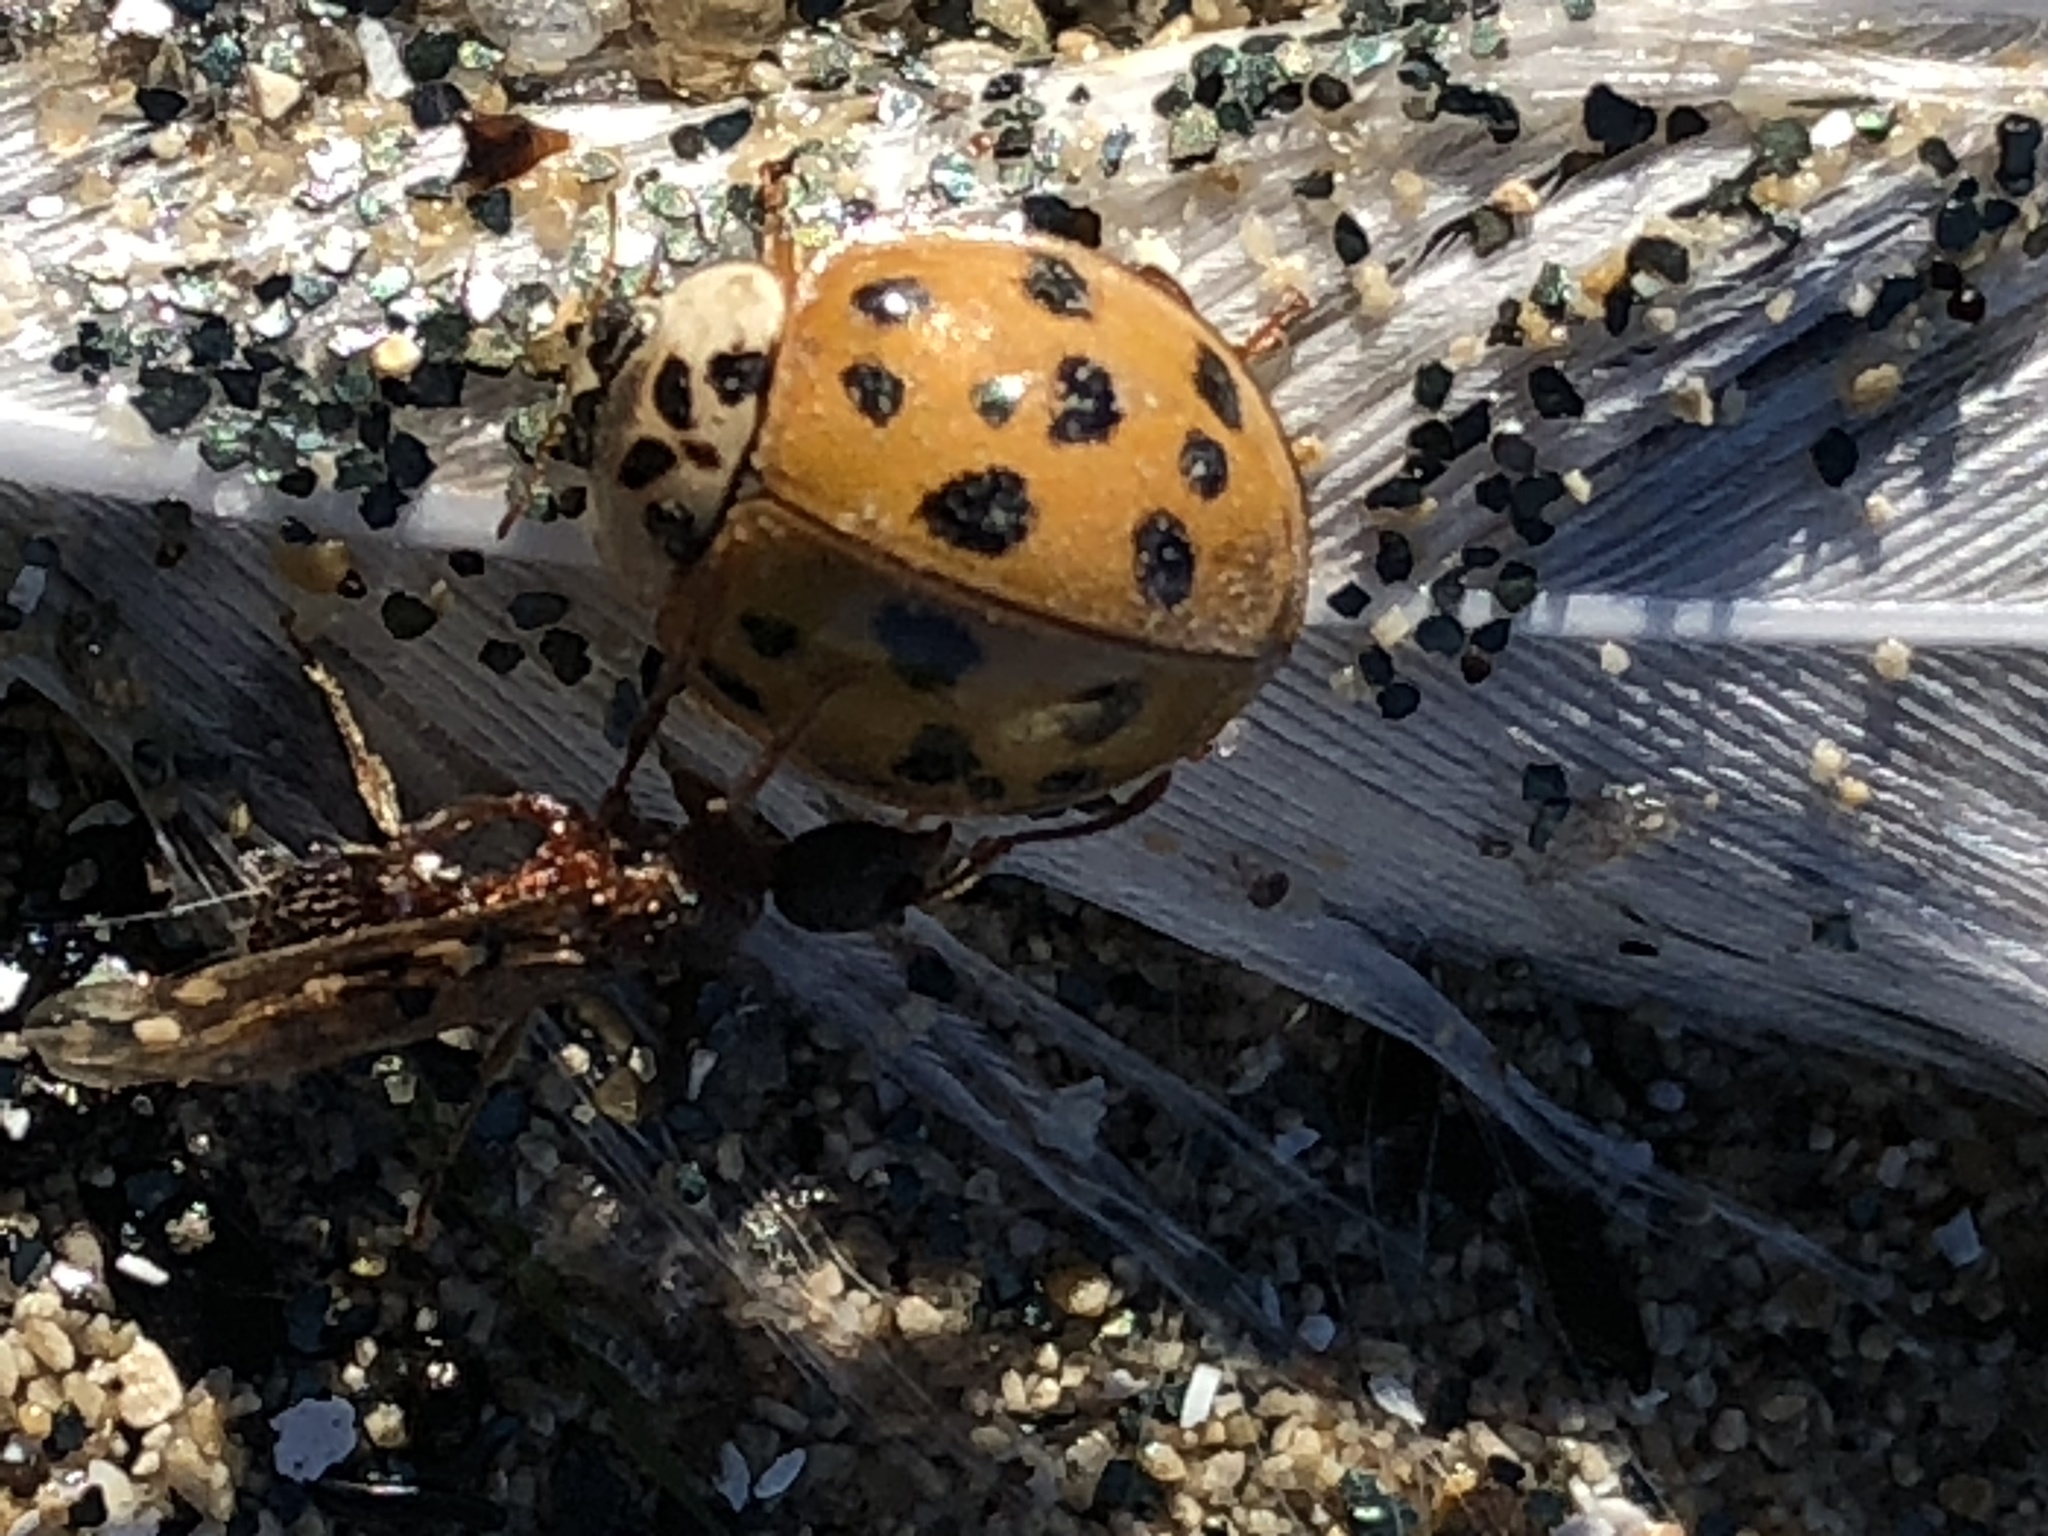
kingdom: Animalia
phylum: Arthropoda
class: Insecta
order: Coleoptera
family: Coccinellidae
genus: Harmonia
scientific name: Harmonia axyridis
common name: Harlequin ladybird
